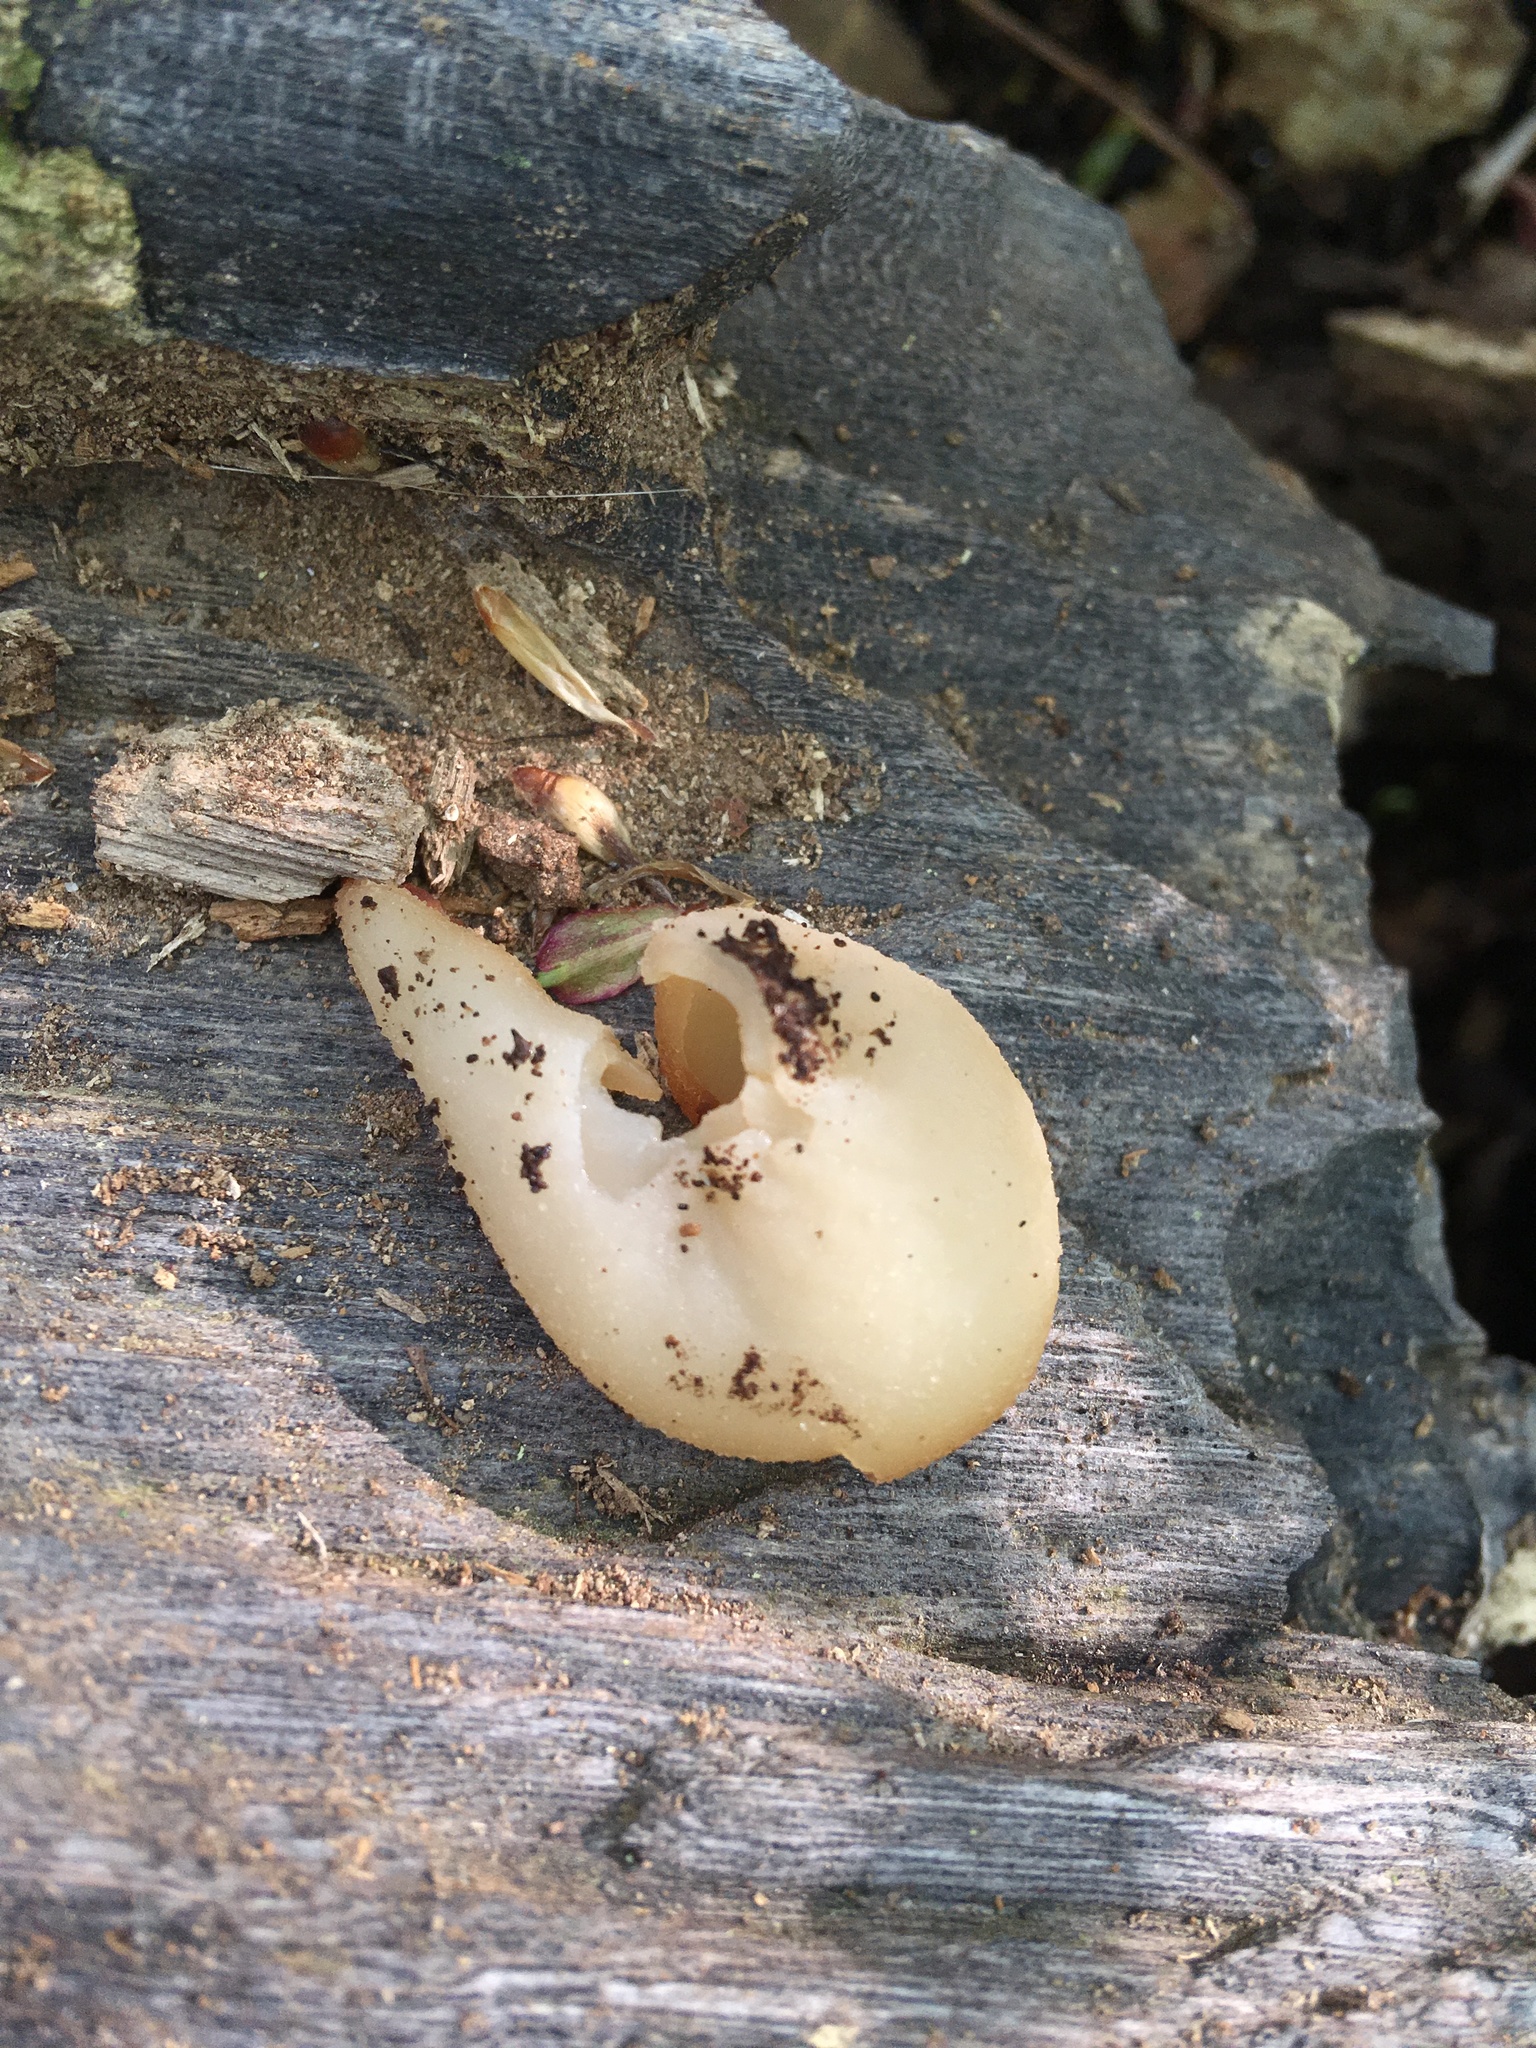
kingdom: Fungi
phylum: Ascomycota
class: Pezizomycetes
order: Pezizales
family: Pezizaceae
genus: Peziza
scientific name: Peziza varia
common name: Layered cup
